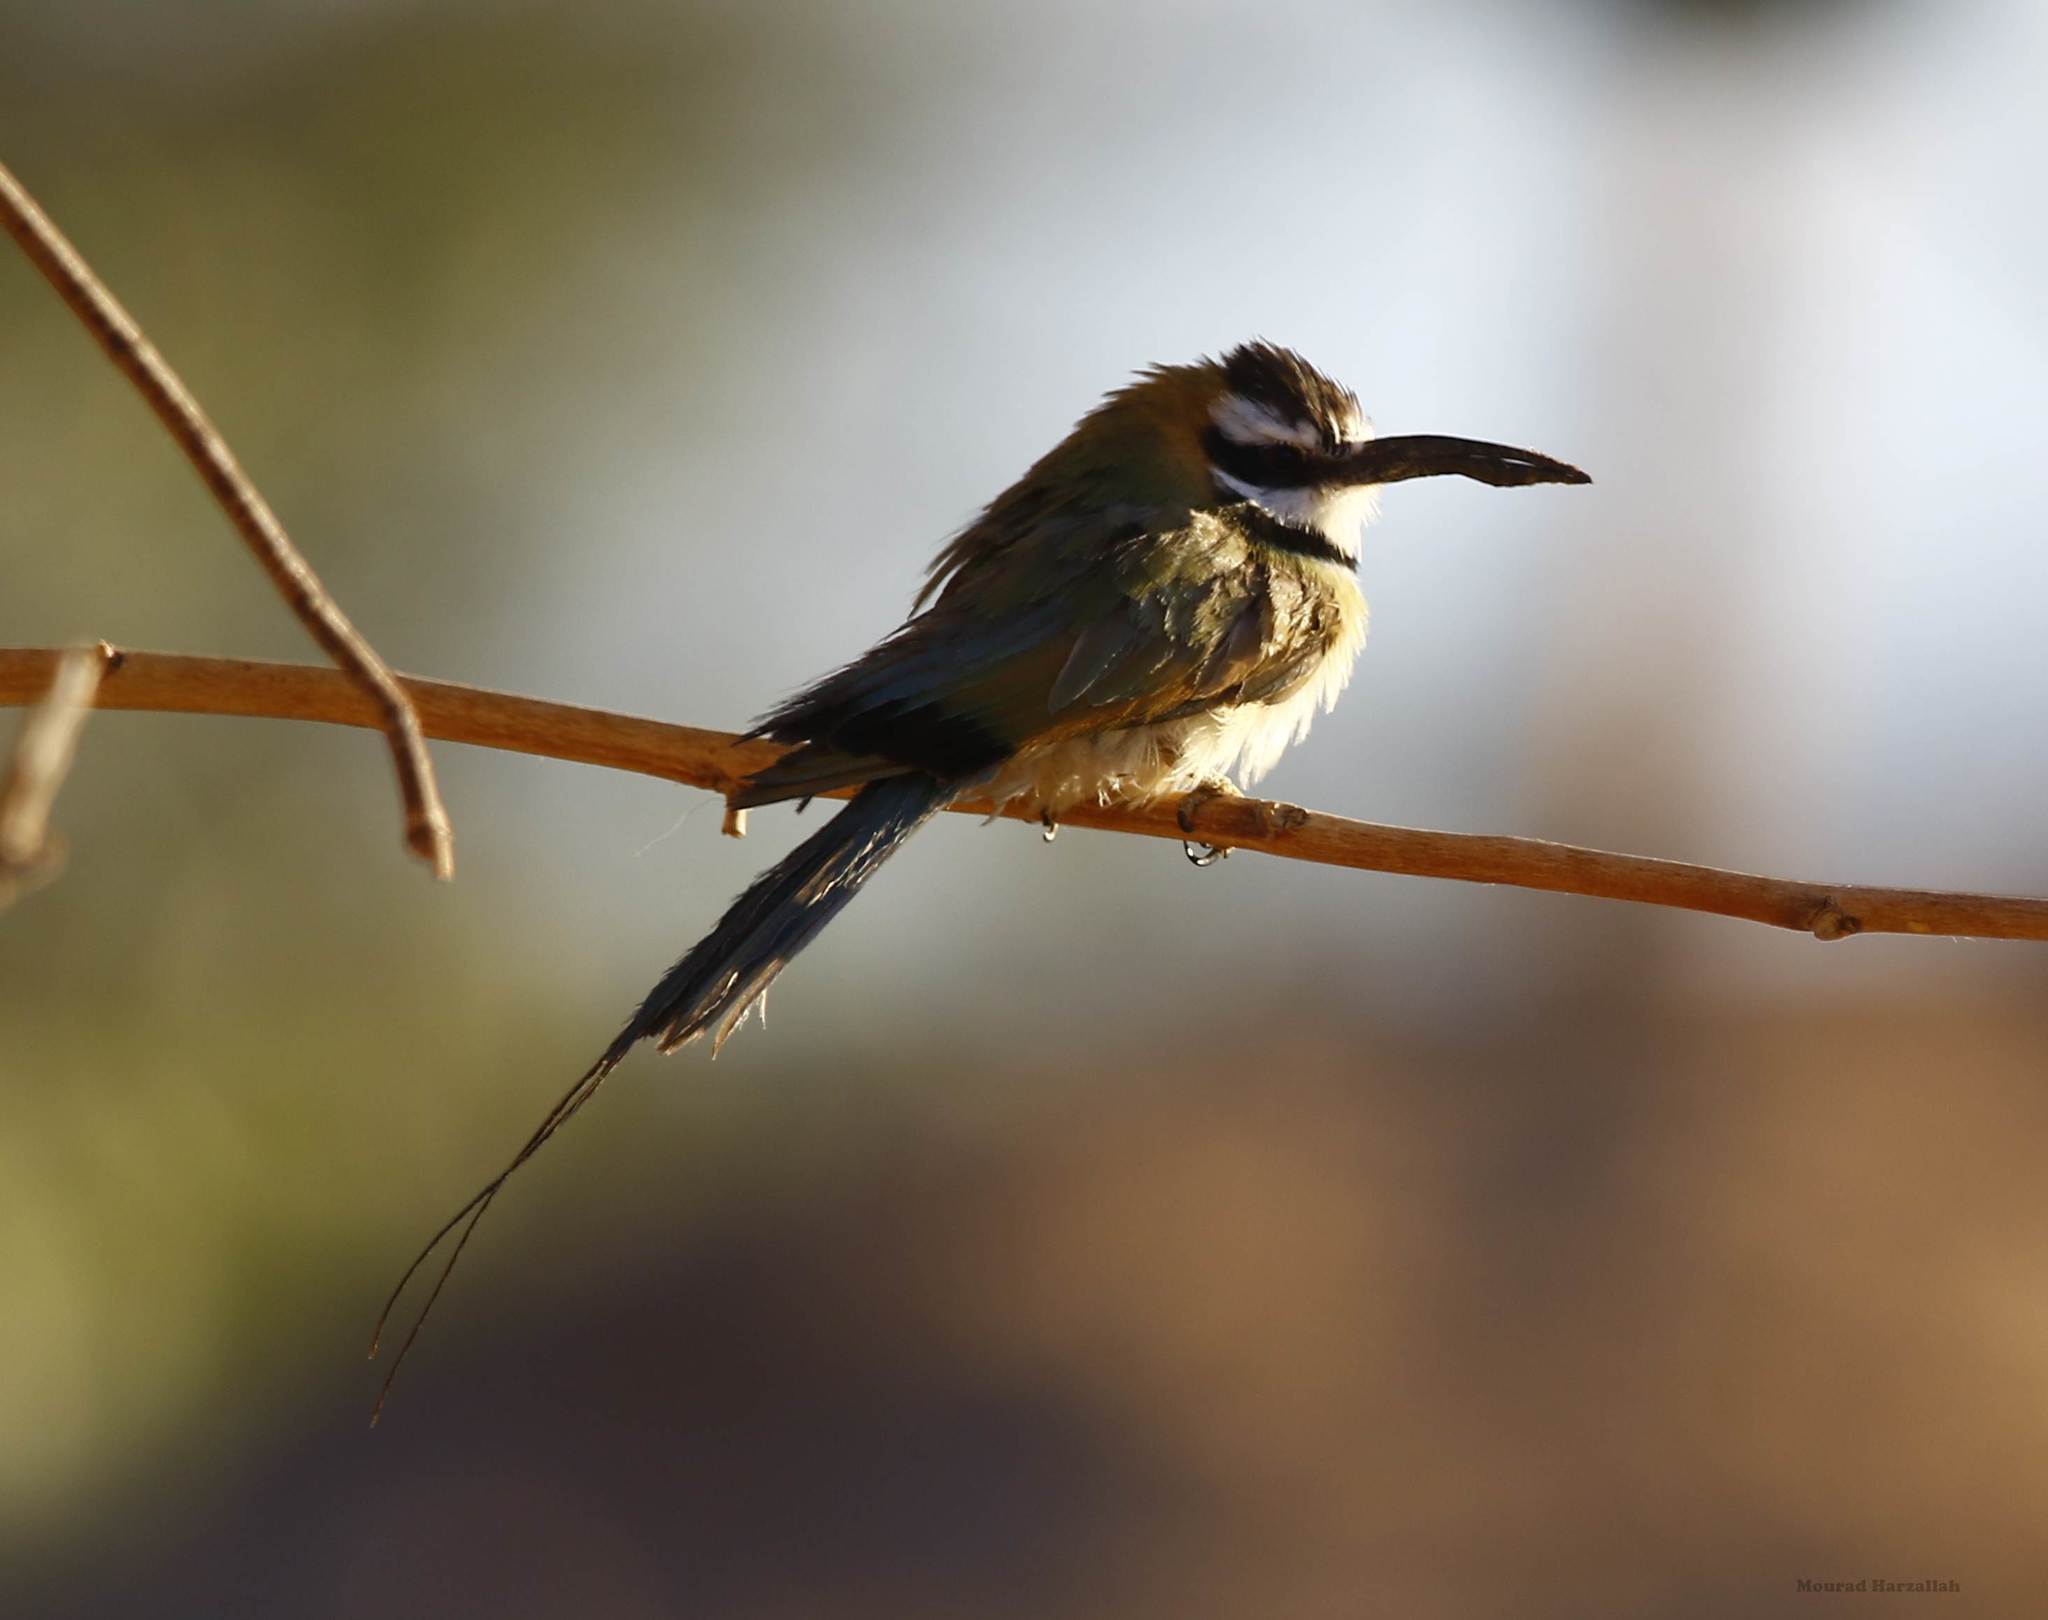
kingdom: Animalia
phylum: Chordata
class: Aves
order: Coraciiformes
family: Meropidae
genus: Merops
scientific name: Merops albicollis
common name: White-throated bee-eater
